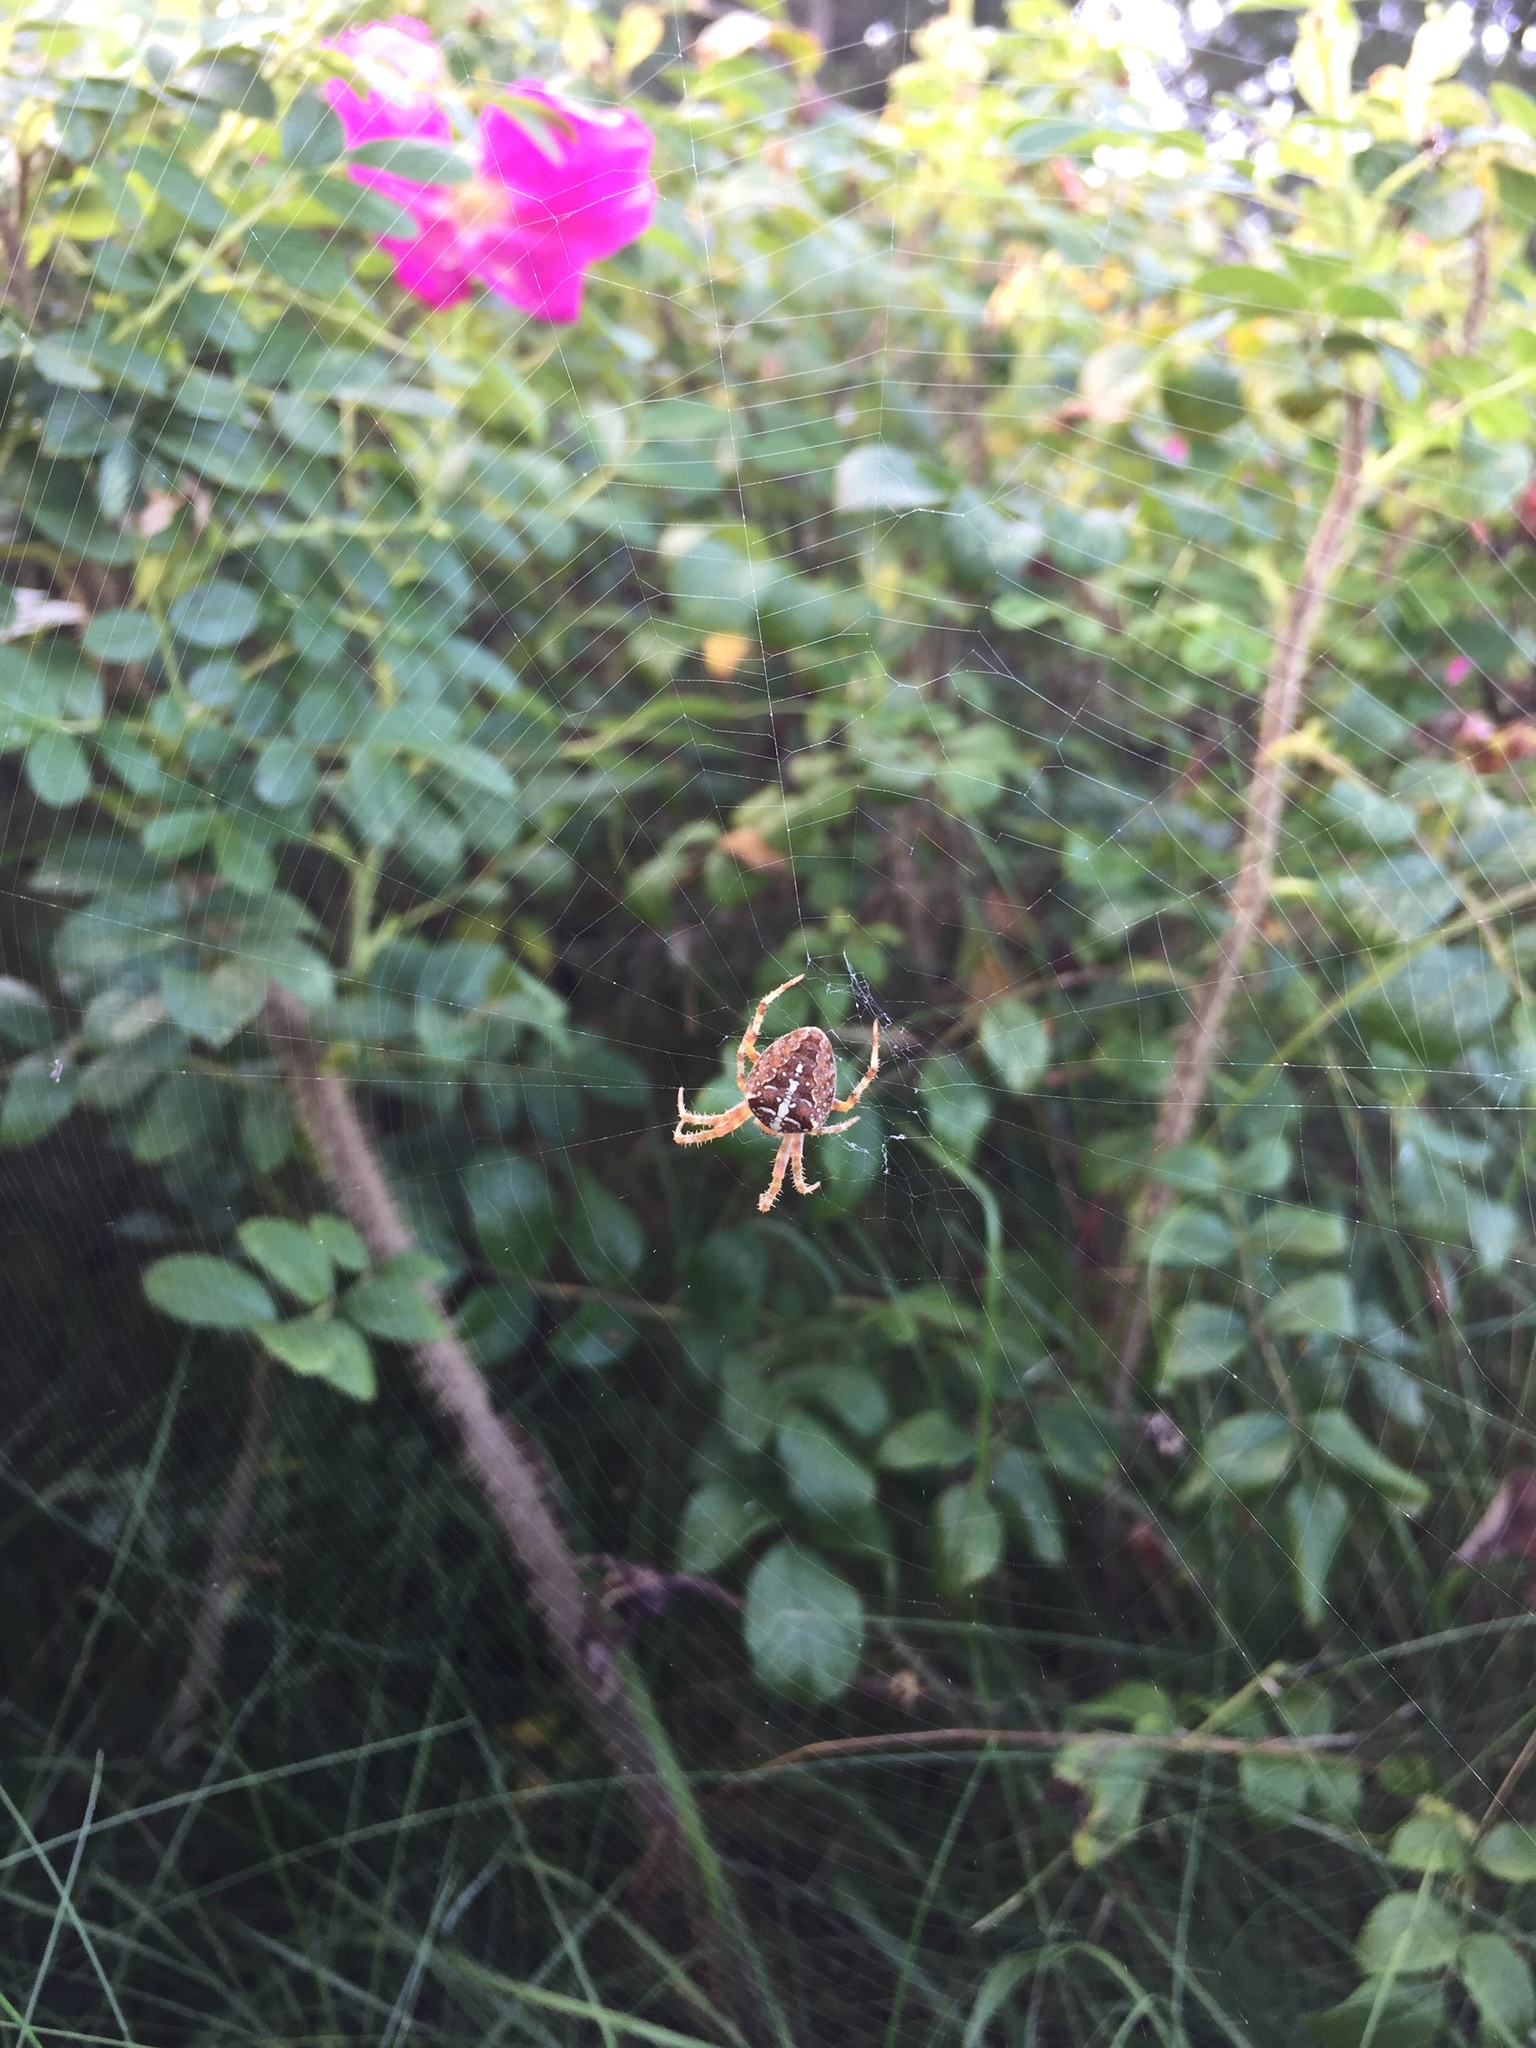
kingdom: Animalia
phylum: Arthropoda
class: Arachnida
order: Araneae
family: Araneidae
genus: Araneus
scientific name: Araneus diadematus
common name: Cross orbweaver
